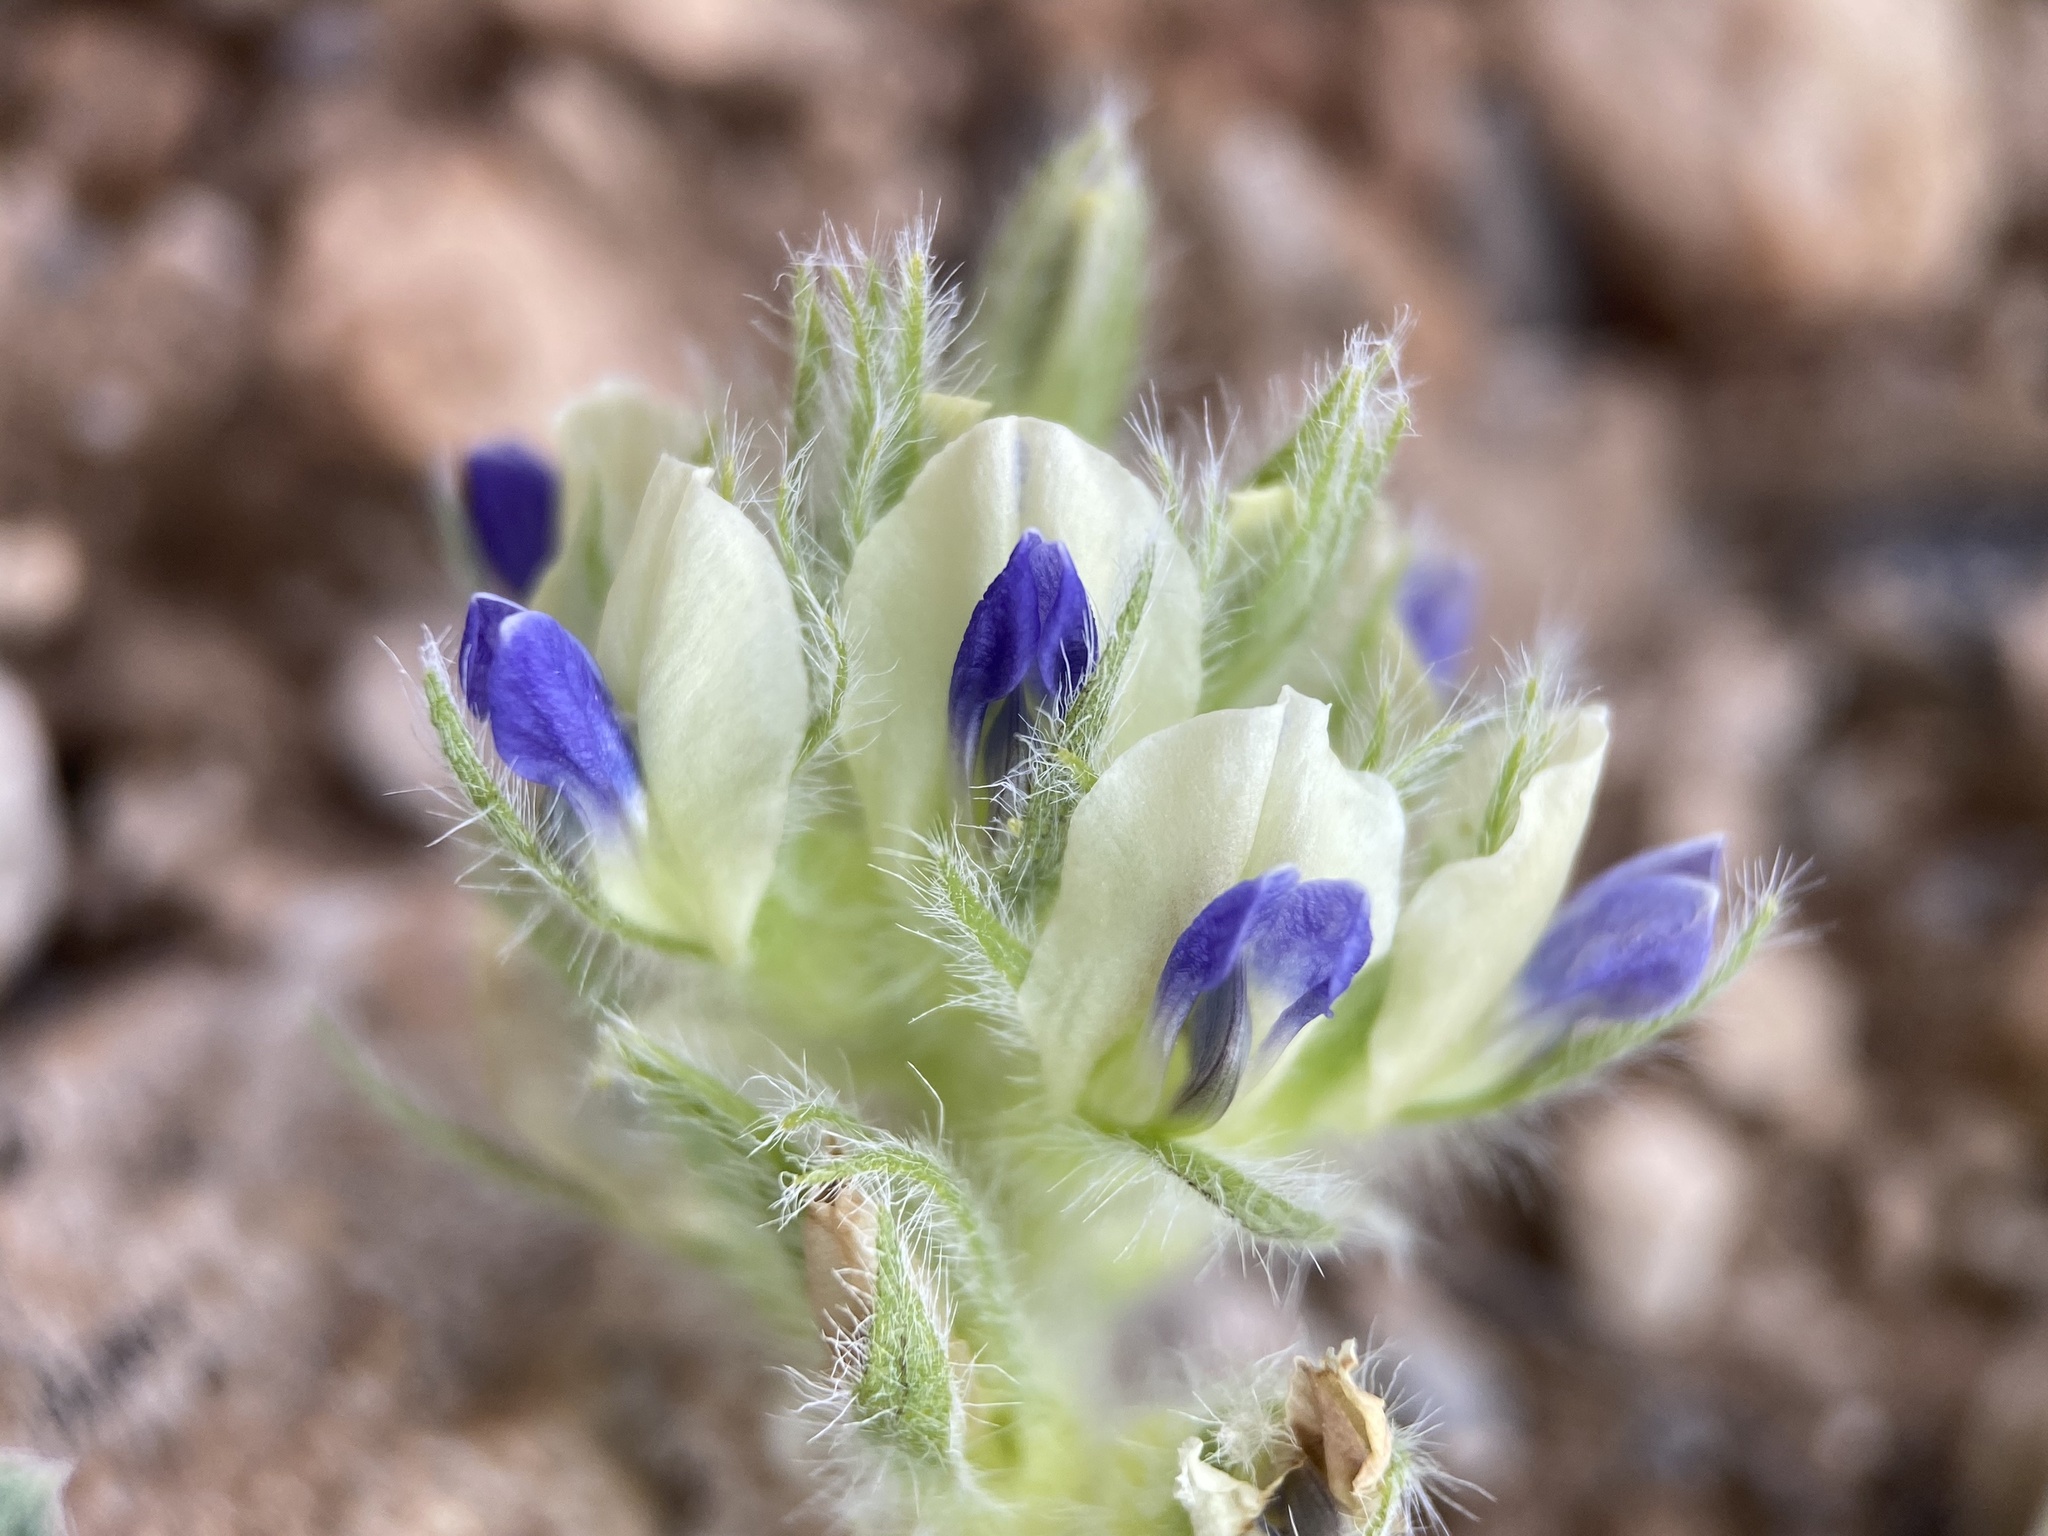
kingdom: Plantae
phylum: Tracheophyta
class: Magnoliopsida
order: Fabales
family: Fabaceae
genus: Pediomelum
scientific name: Pediomelum castoreum
